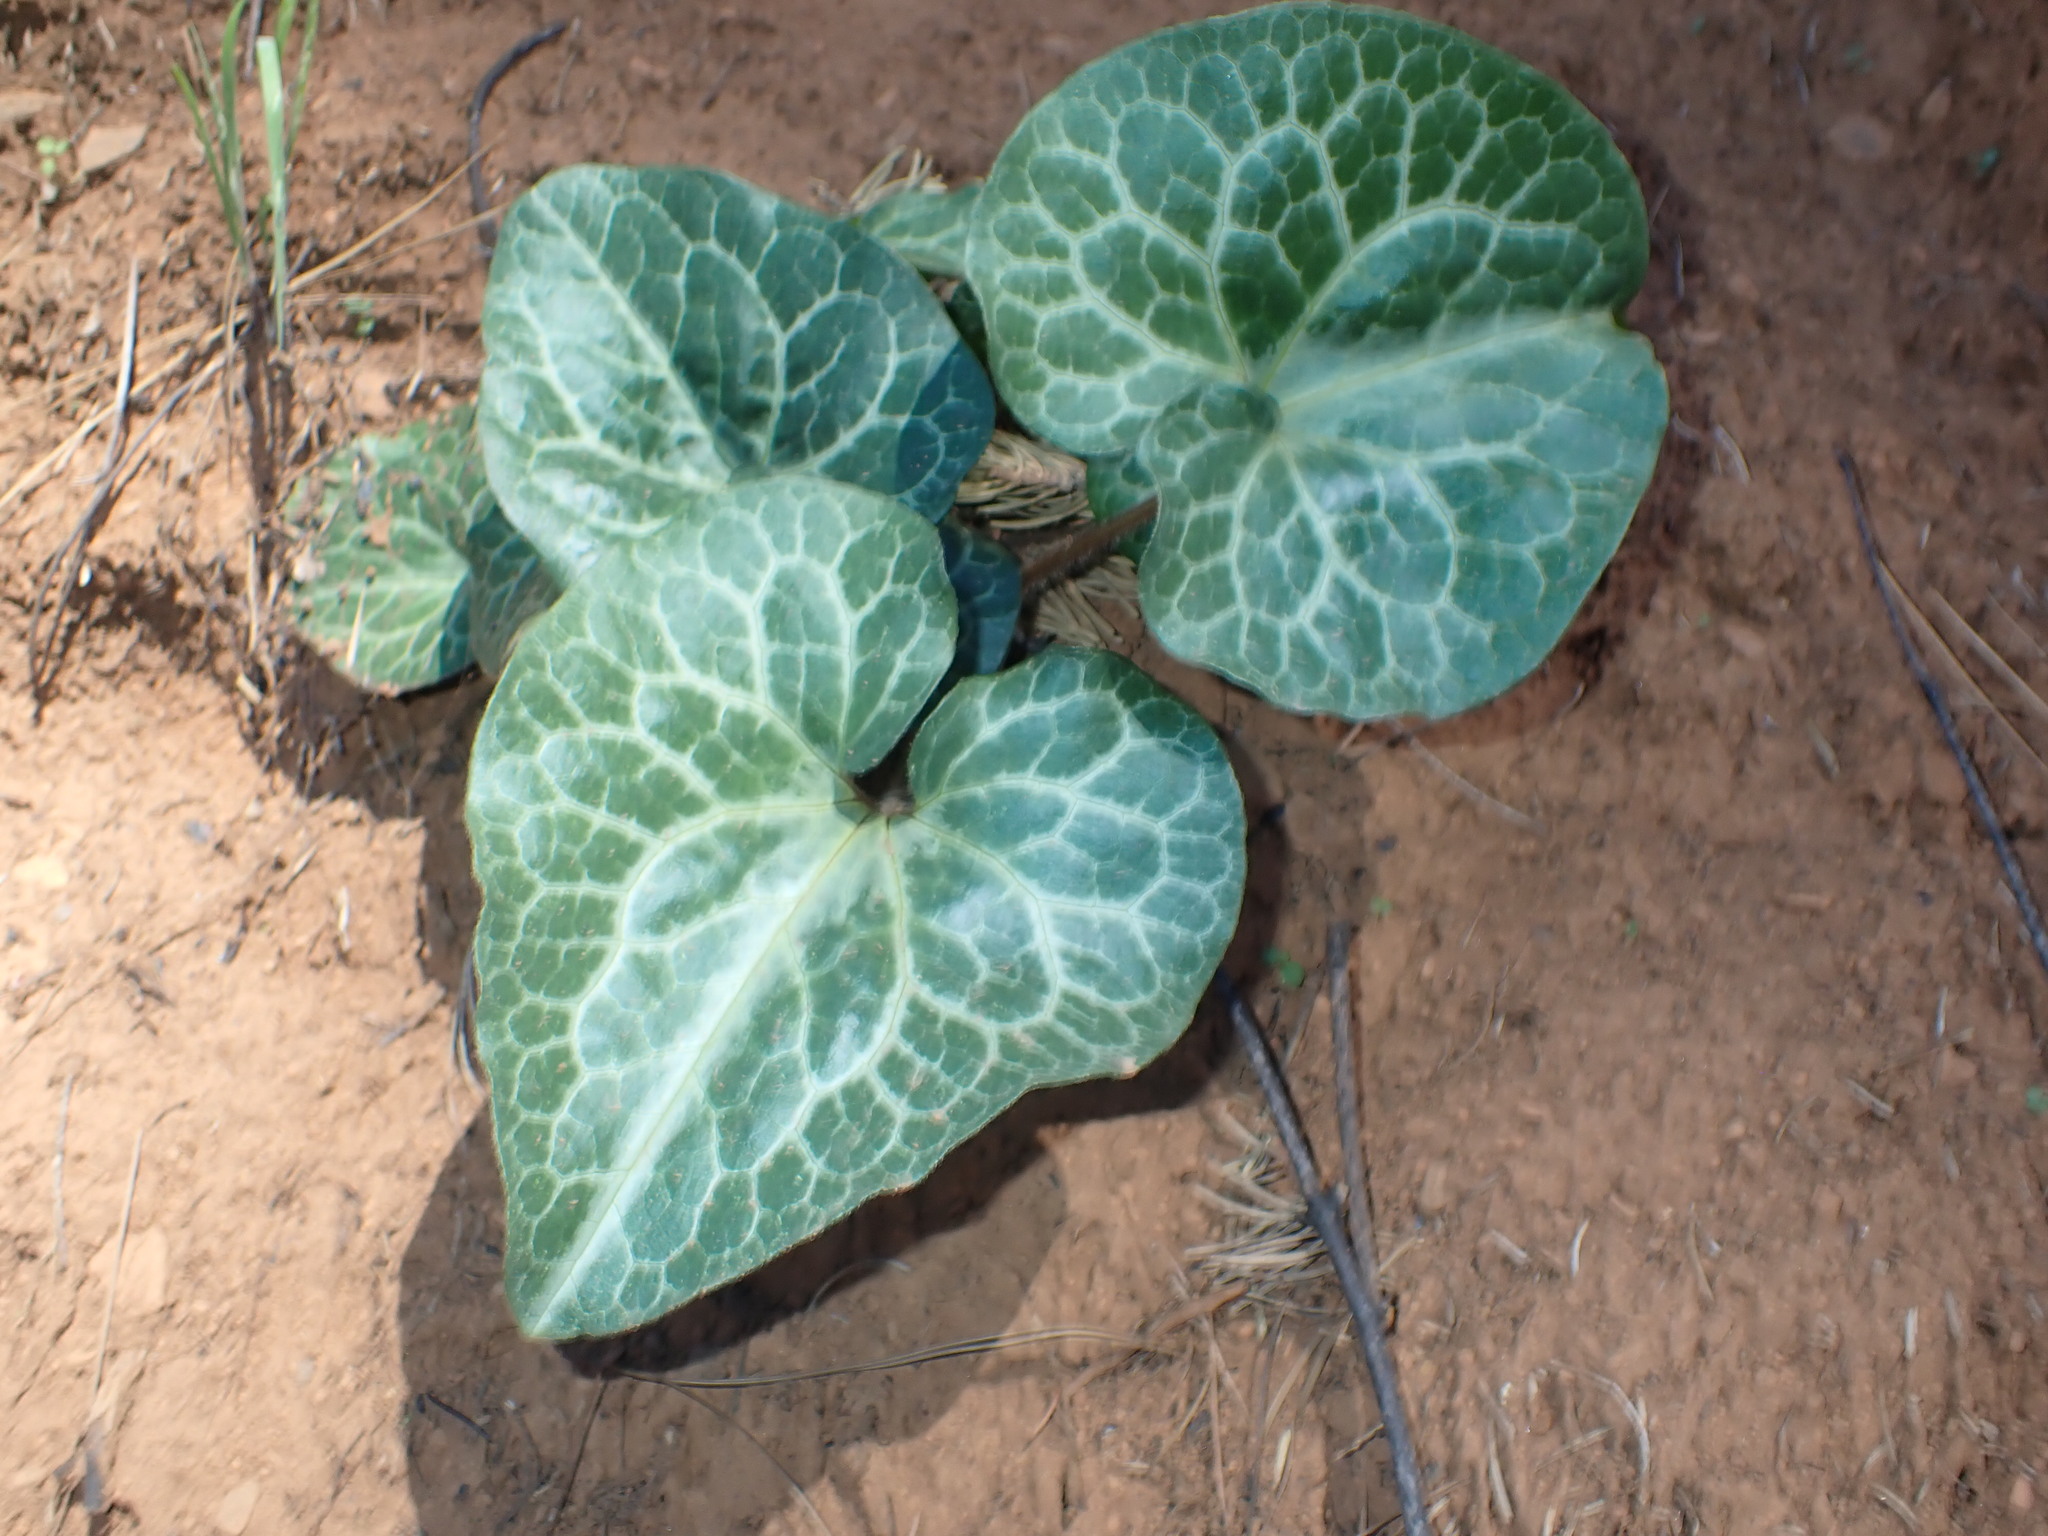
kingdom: Plantae
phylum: Tracheophyta
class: Magnoliopsida
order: Piperales
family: Aristolochiaceae
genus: Asarum
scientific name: Asarum hartwegii
